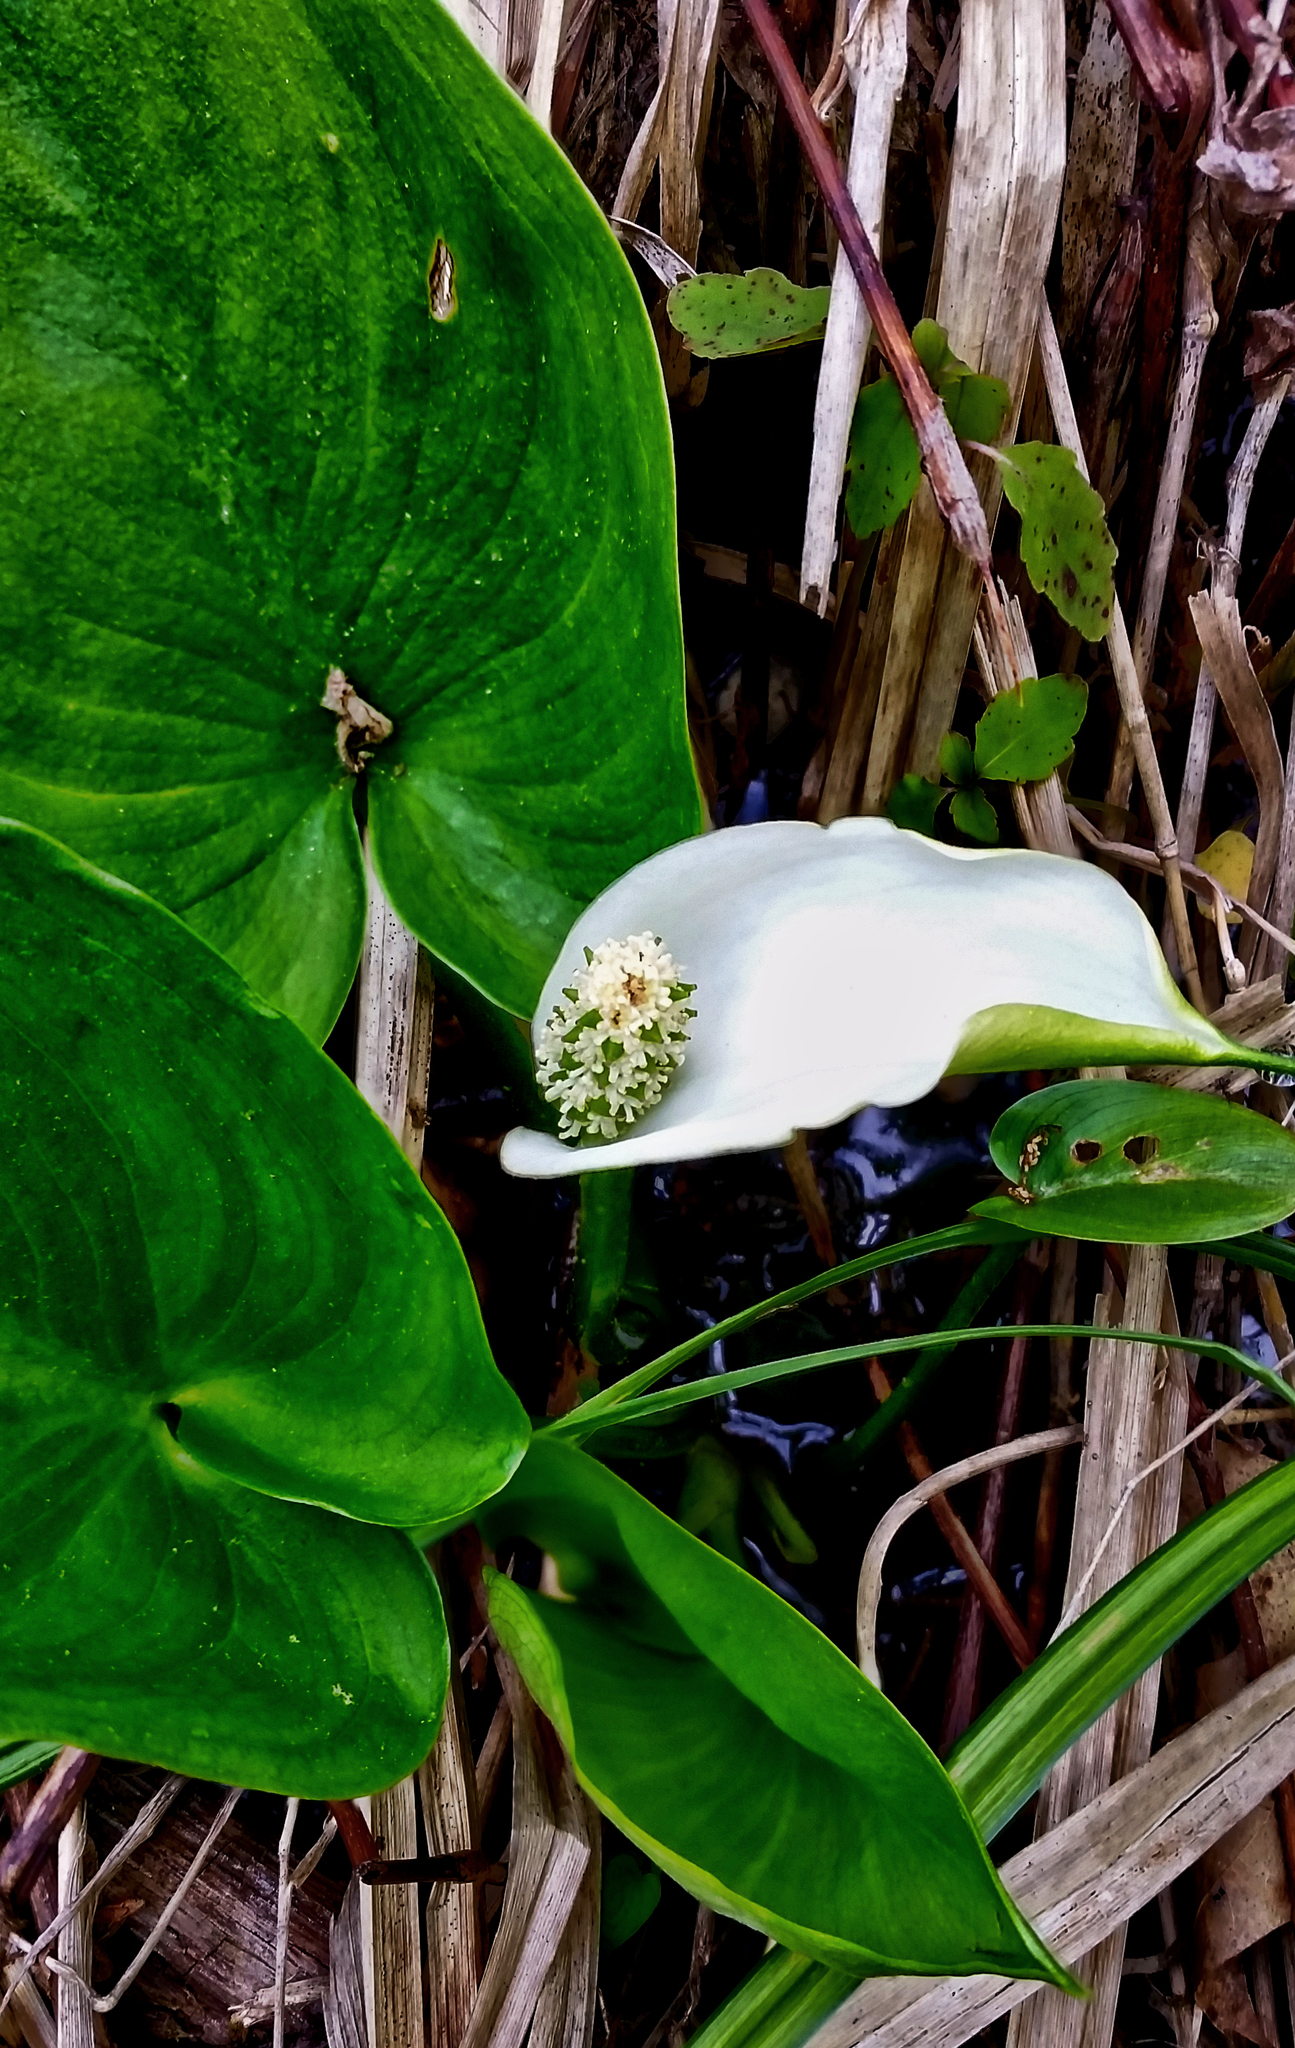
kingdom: Plantae
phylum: Tracheophyta
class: Liliopsida
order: Alismatales
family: Araceae
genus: Calla
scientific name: Calla palustris
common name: Bog arum
